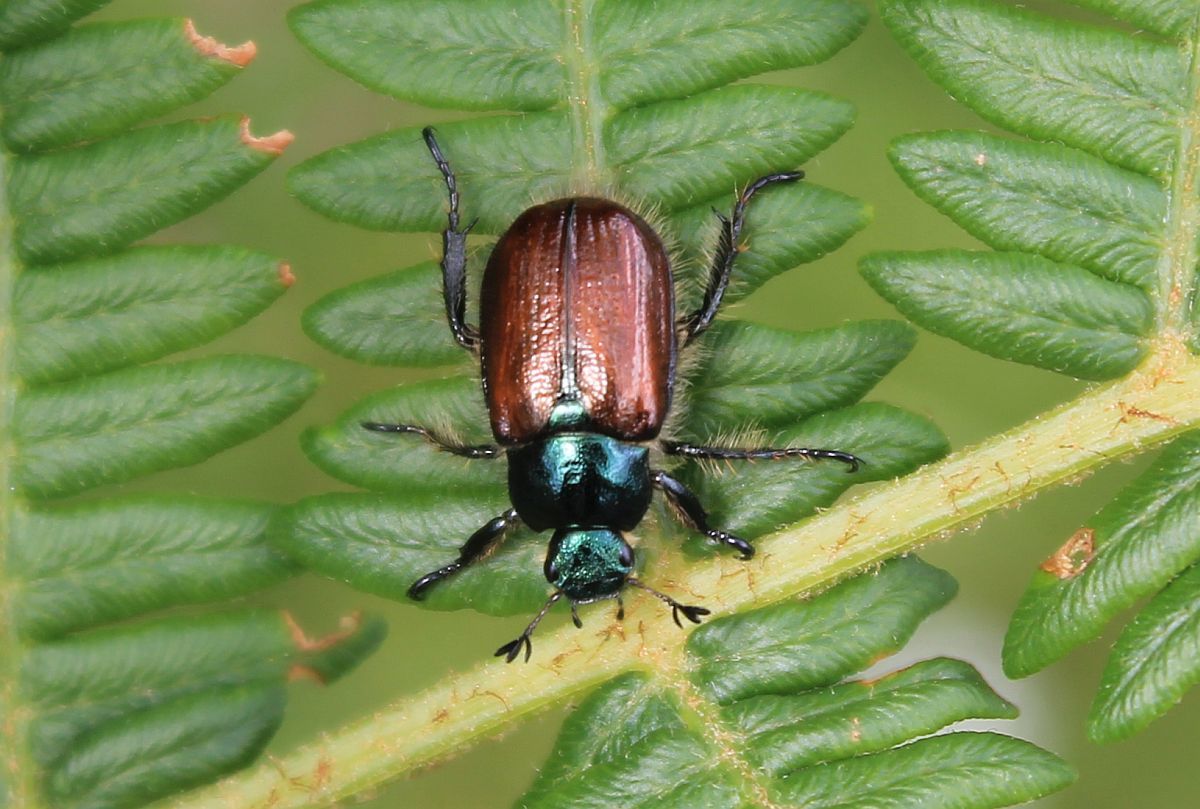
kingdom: Animalia
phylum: Arthropoda
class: Insecta
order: Coleoptera
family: Scarabaeidae
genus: Phyllopertha
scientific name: Phyllopertha horticola
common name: Garden chafer
